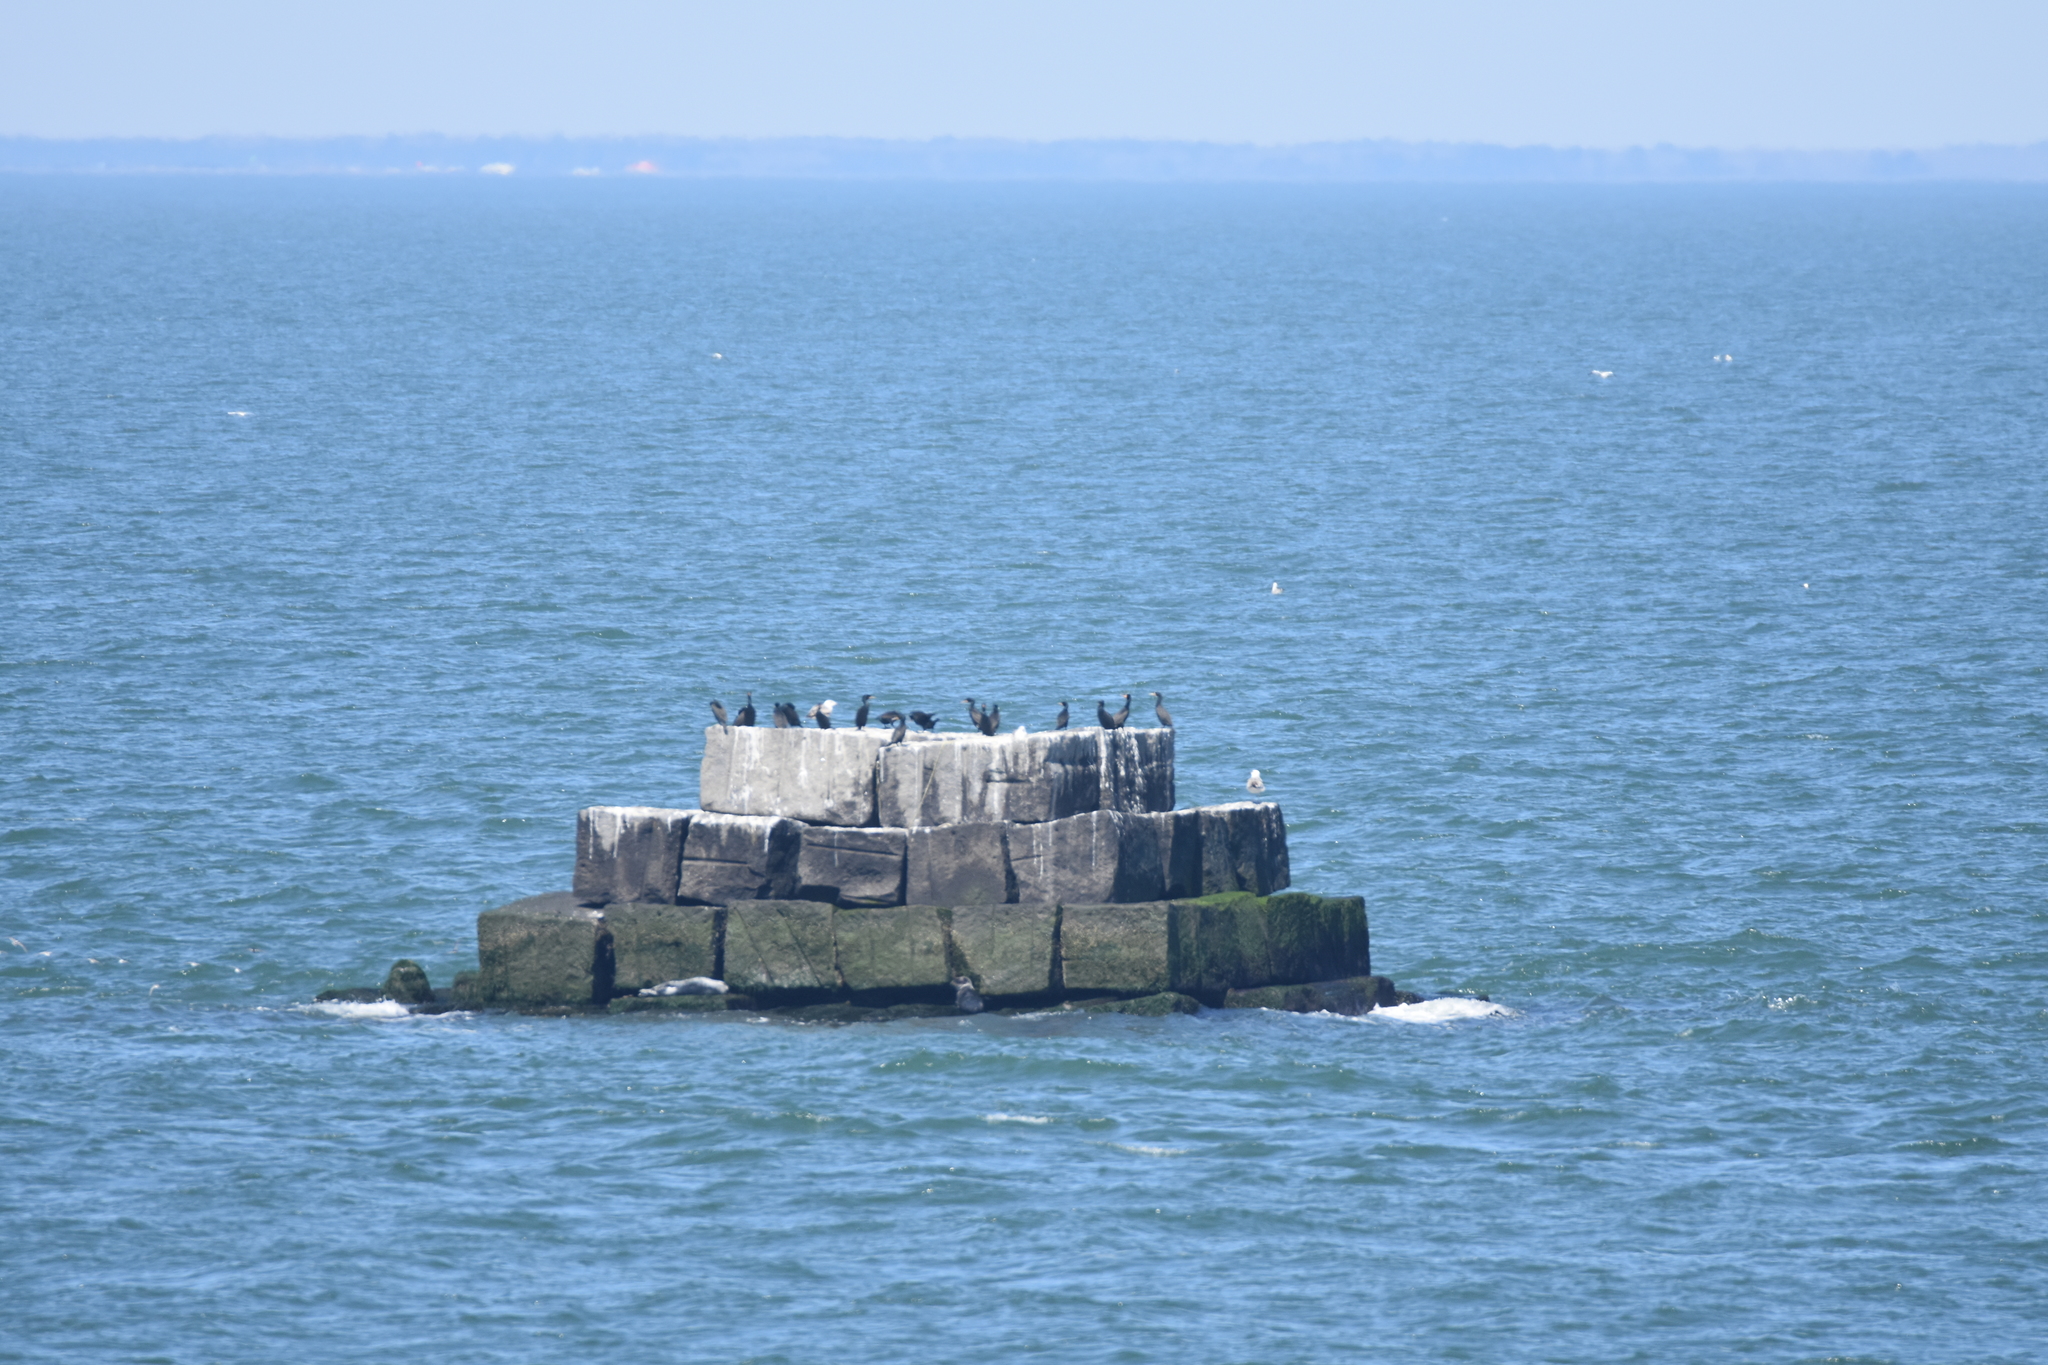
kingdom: Animalia
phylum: Chordata
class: Aves
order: Suliformes
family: Phalacrocoracidae
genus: Phalacrocorax
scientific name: Phalacrocorax auritus
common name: Double-crested cormorant
